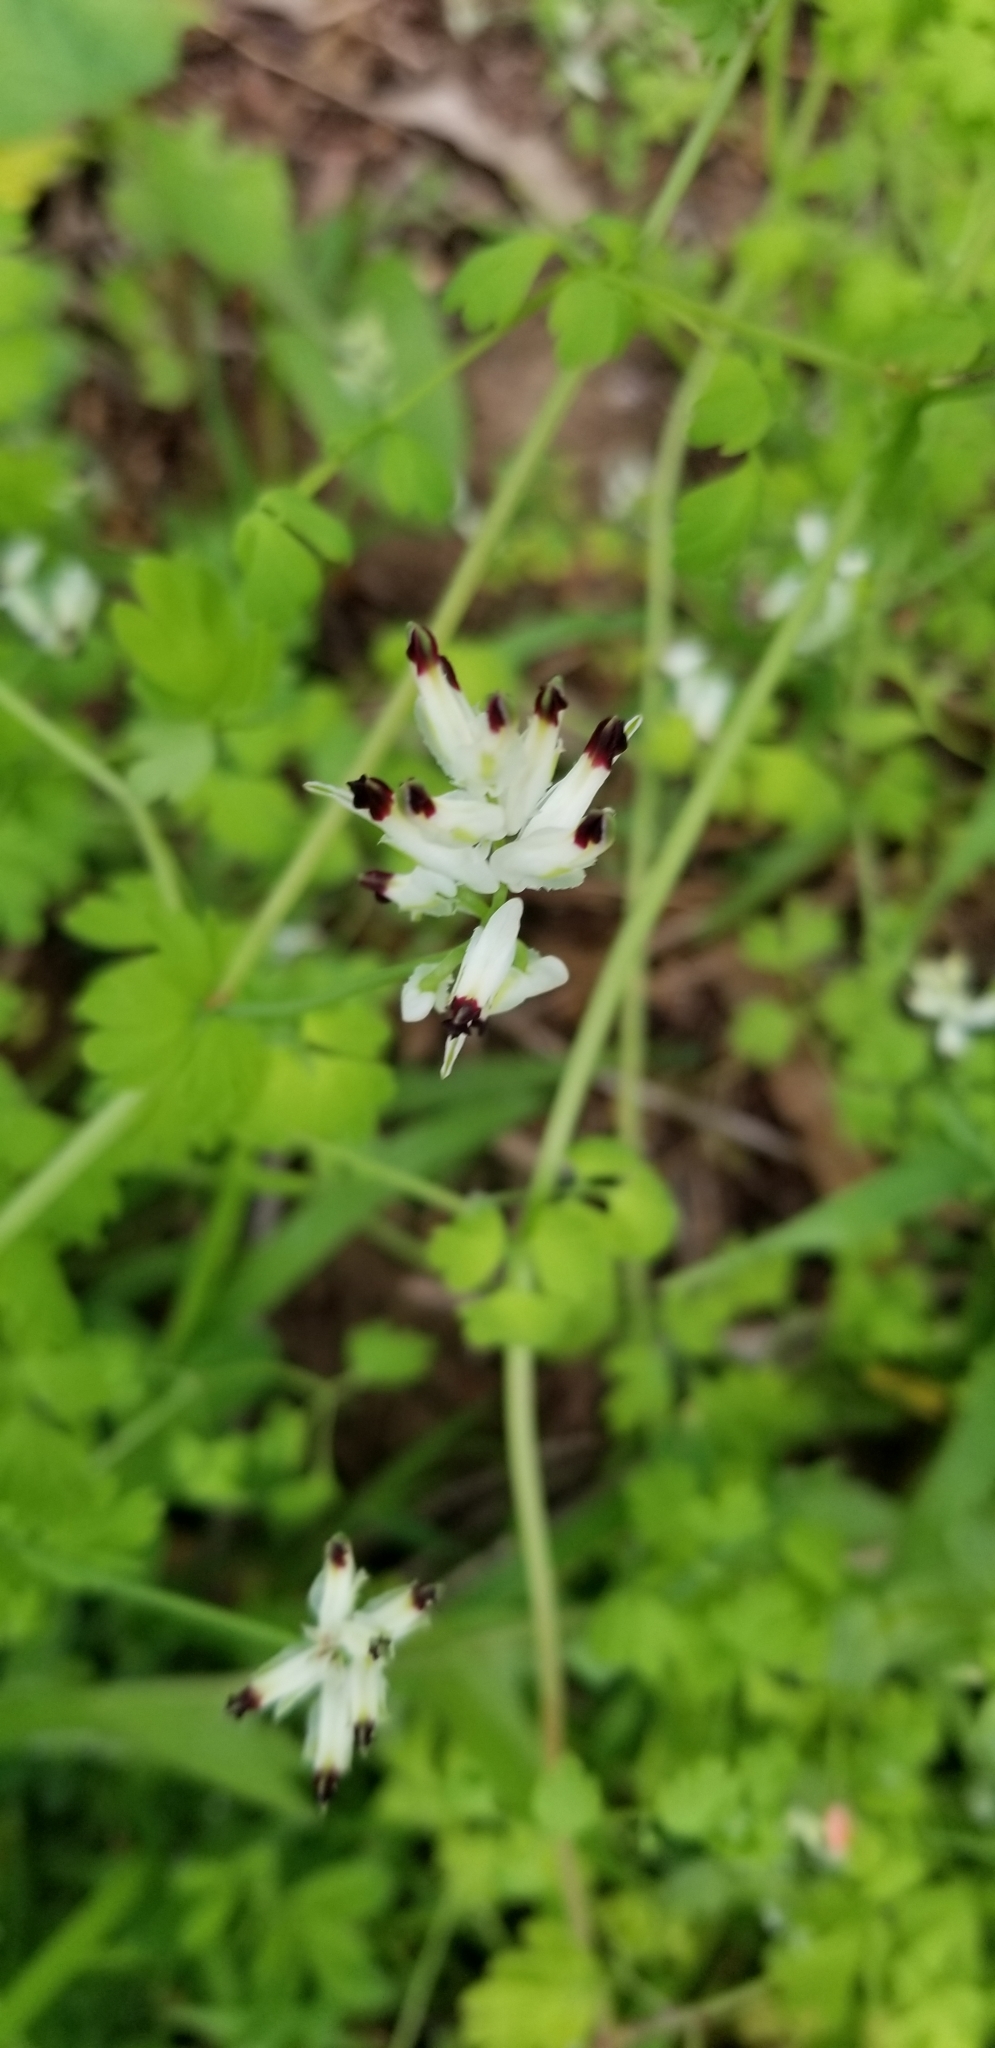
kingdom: Plantae
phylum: Tracheophyta
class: Magnoliopsida
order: Ranunculales
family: Papaveraceae
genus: Fumaria
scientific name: Fumaria capreolata
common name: White ramping-fumitory
